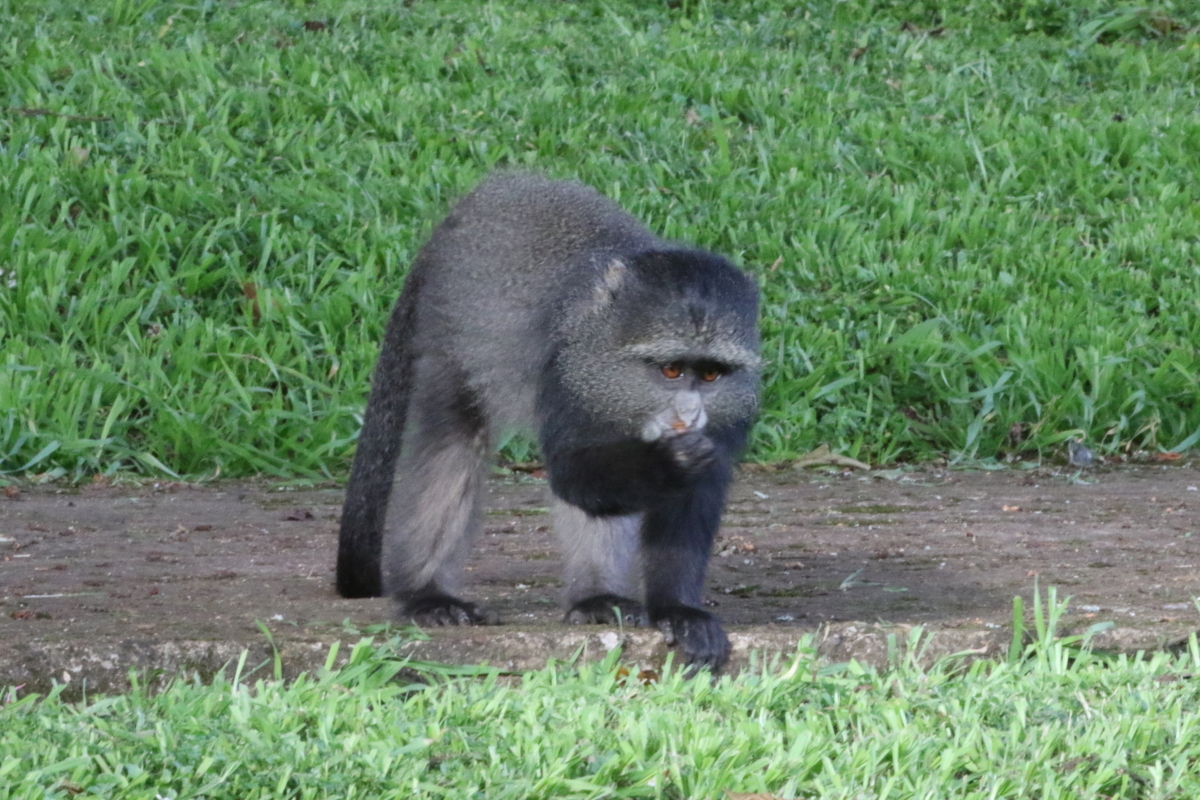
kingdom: Animalia
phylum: Chordata
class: Mammalia
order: Primates
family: Cercopithecidae
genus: Cercopithecus
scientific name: Cercopithecus mitis
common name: Blue monkey
